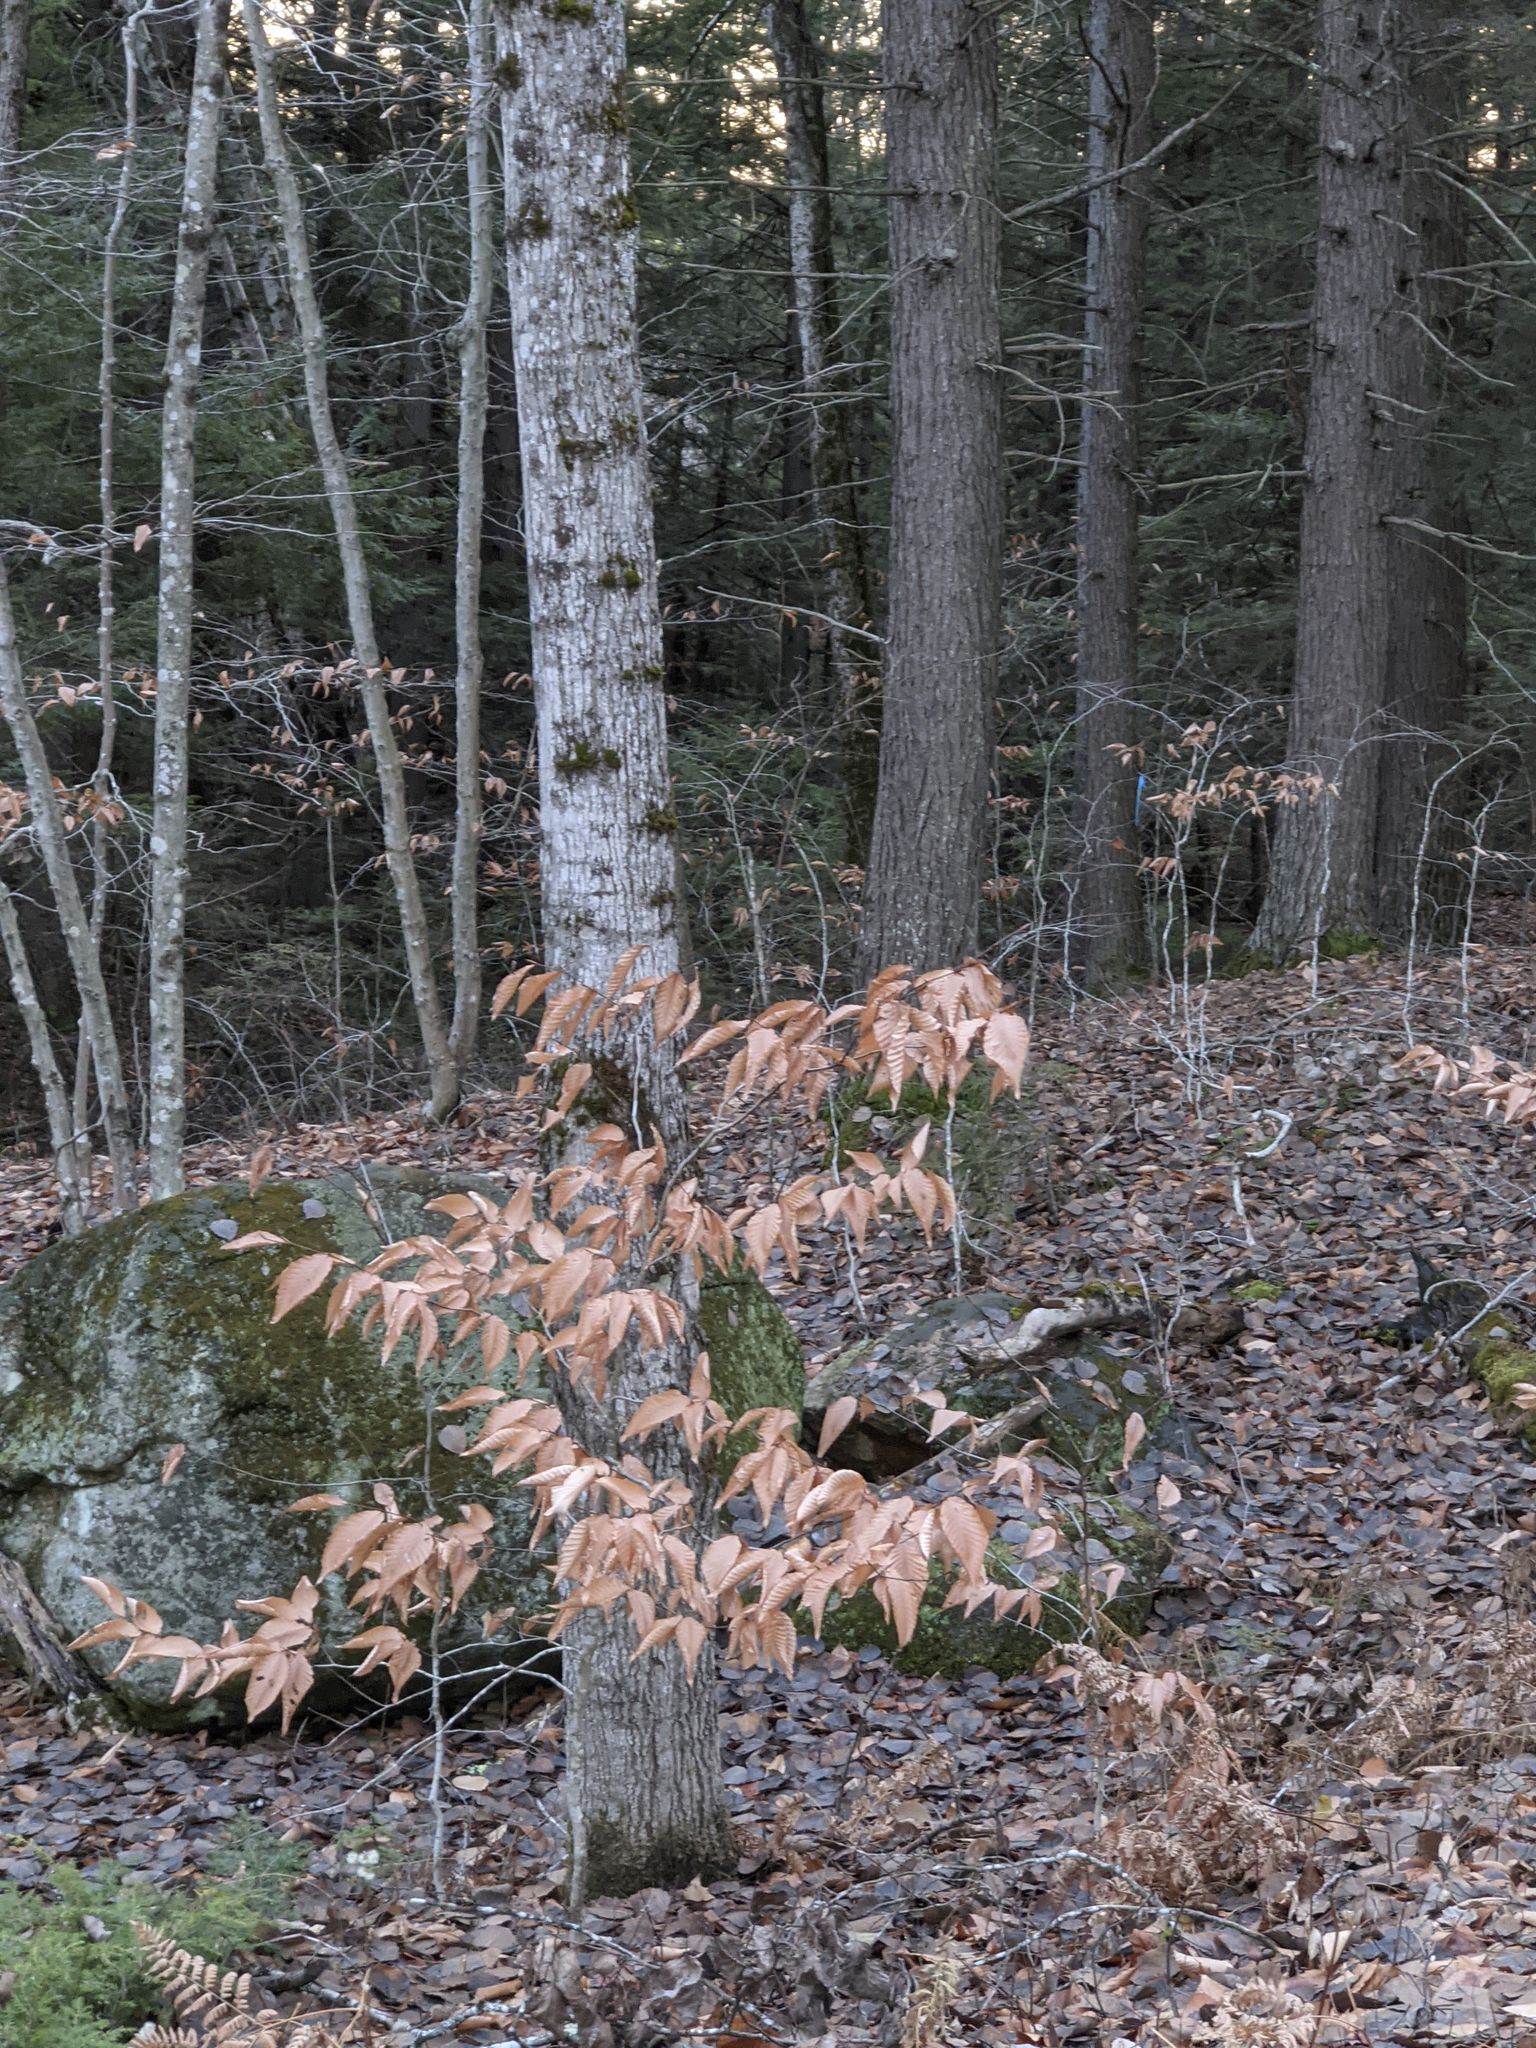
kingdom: Plantae
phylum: Tracheophyta
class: Magnoliopsida
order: Fagales
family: Fagaceae
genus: Fagus
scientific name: Fagus grandifolia
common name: American beech
